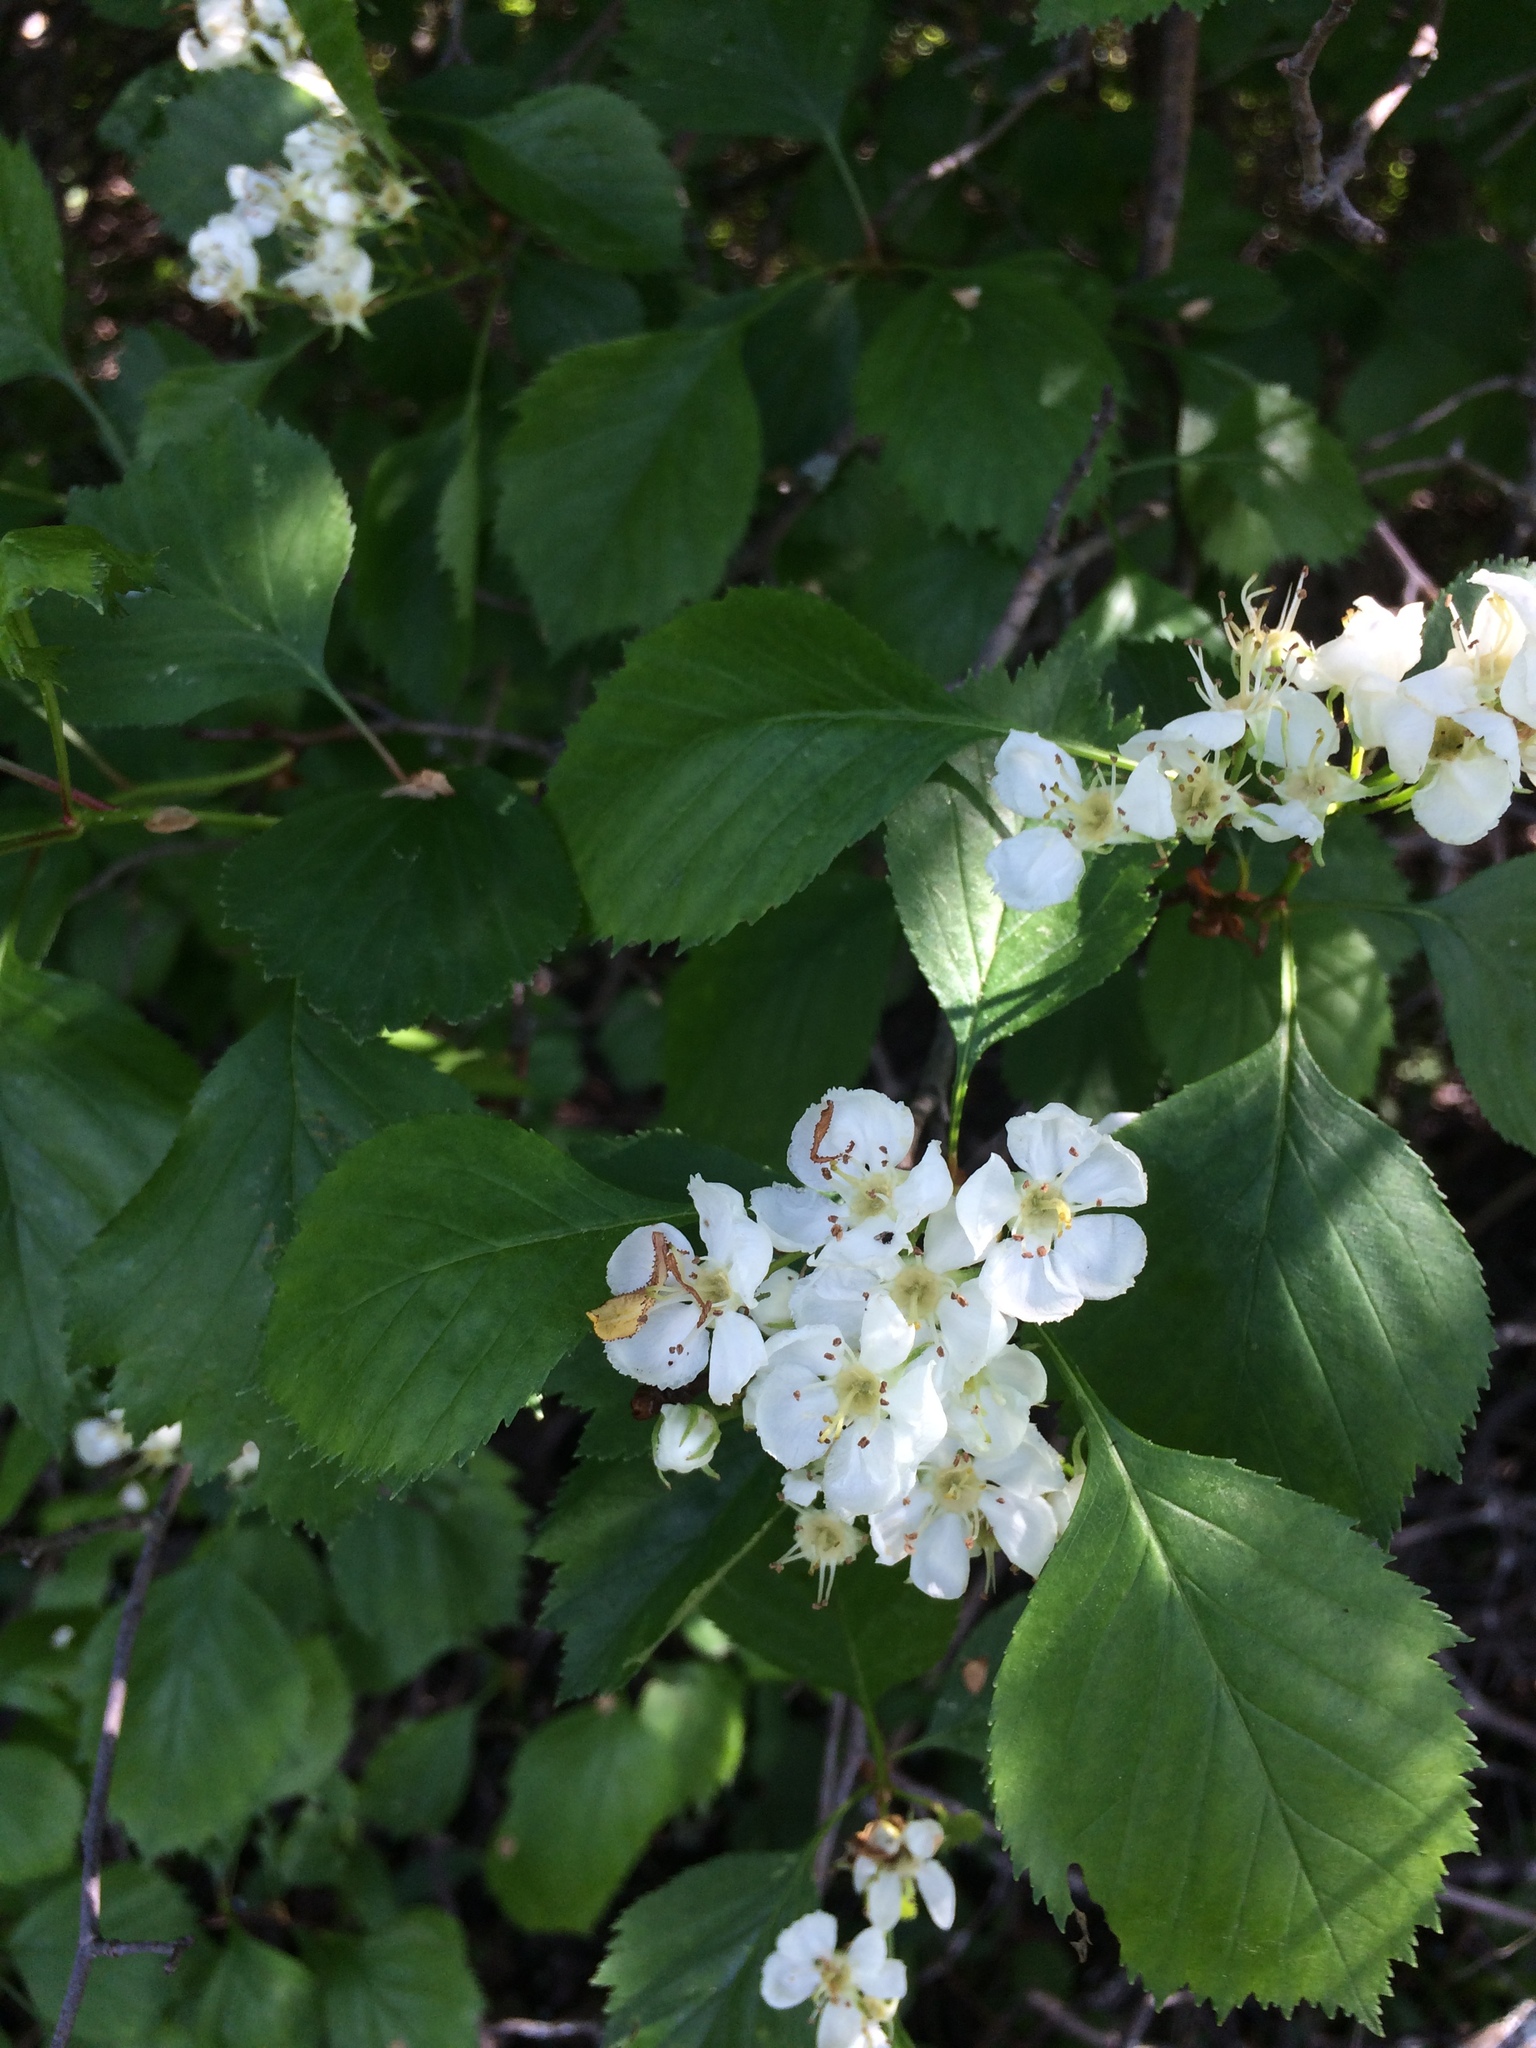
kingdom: Plantae
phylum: Tracheophyta
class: Magnoliopsida
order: Rosales
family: Rosaceae
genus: Crataegus
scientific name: Crataegus chrysocarpa
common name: Fire-berry hawthorn
